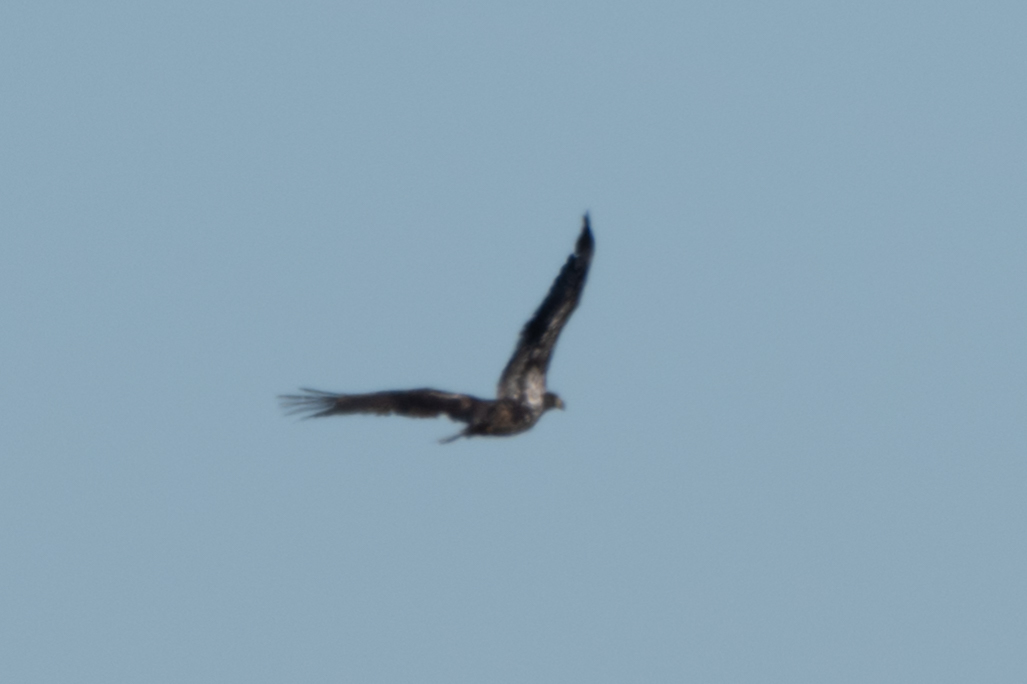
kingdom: Animalia
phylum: Chordata
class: Aves
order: Accipitriformes
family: Accipitridae
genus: Haliaeetus
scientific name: Haliaeetus leucocephalus
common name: Bald eagle
